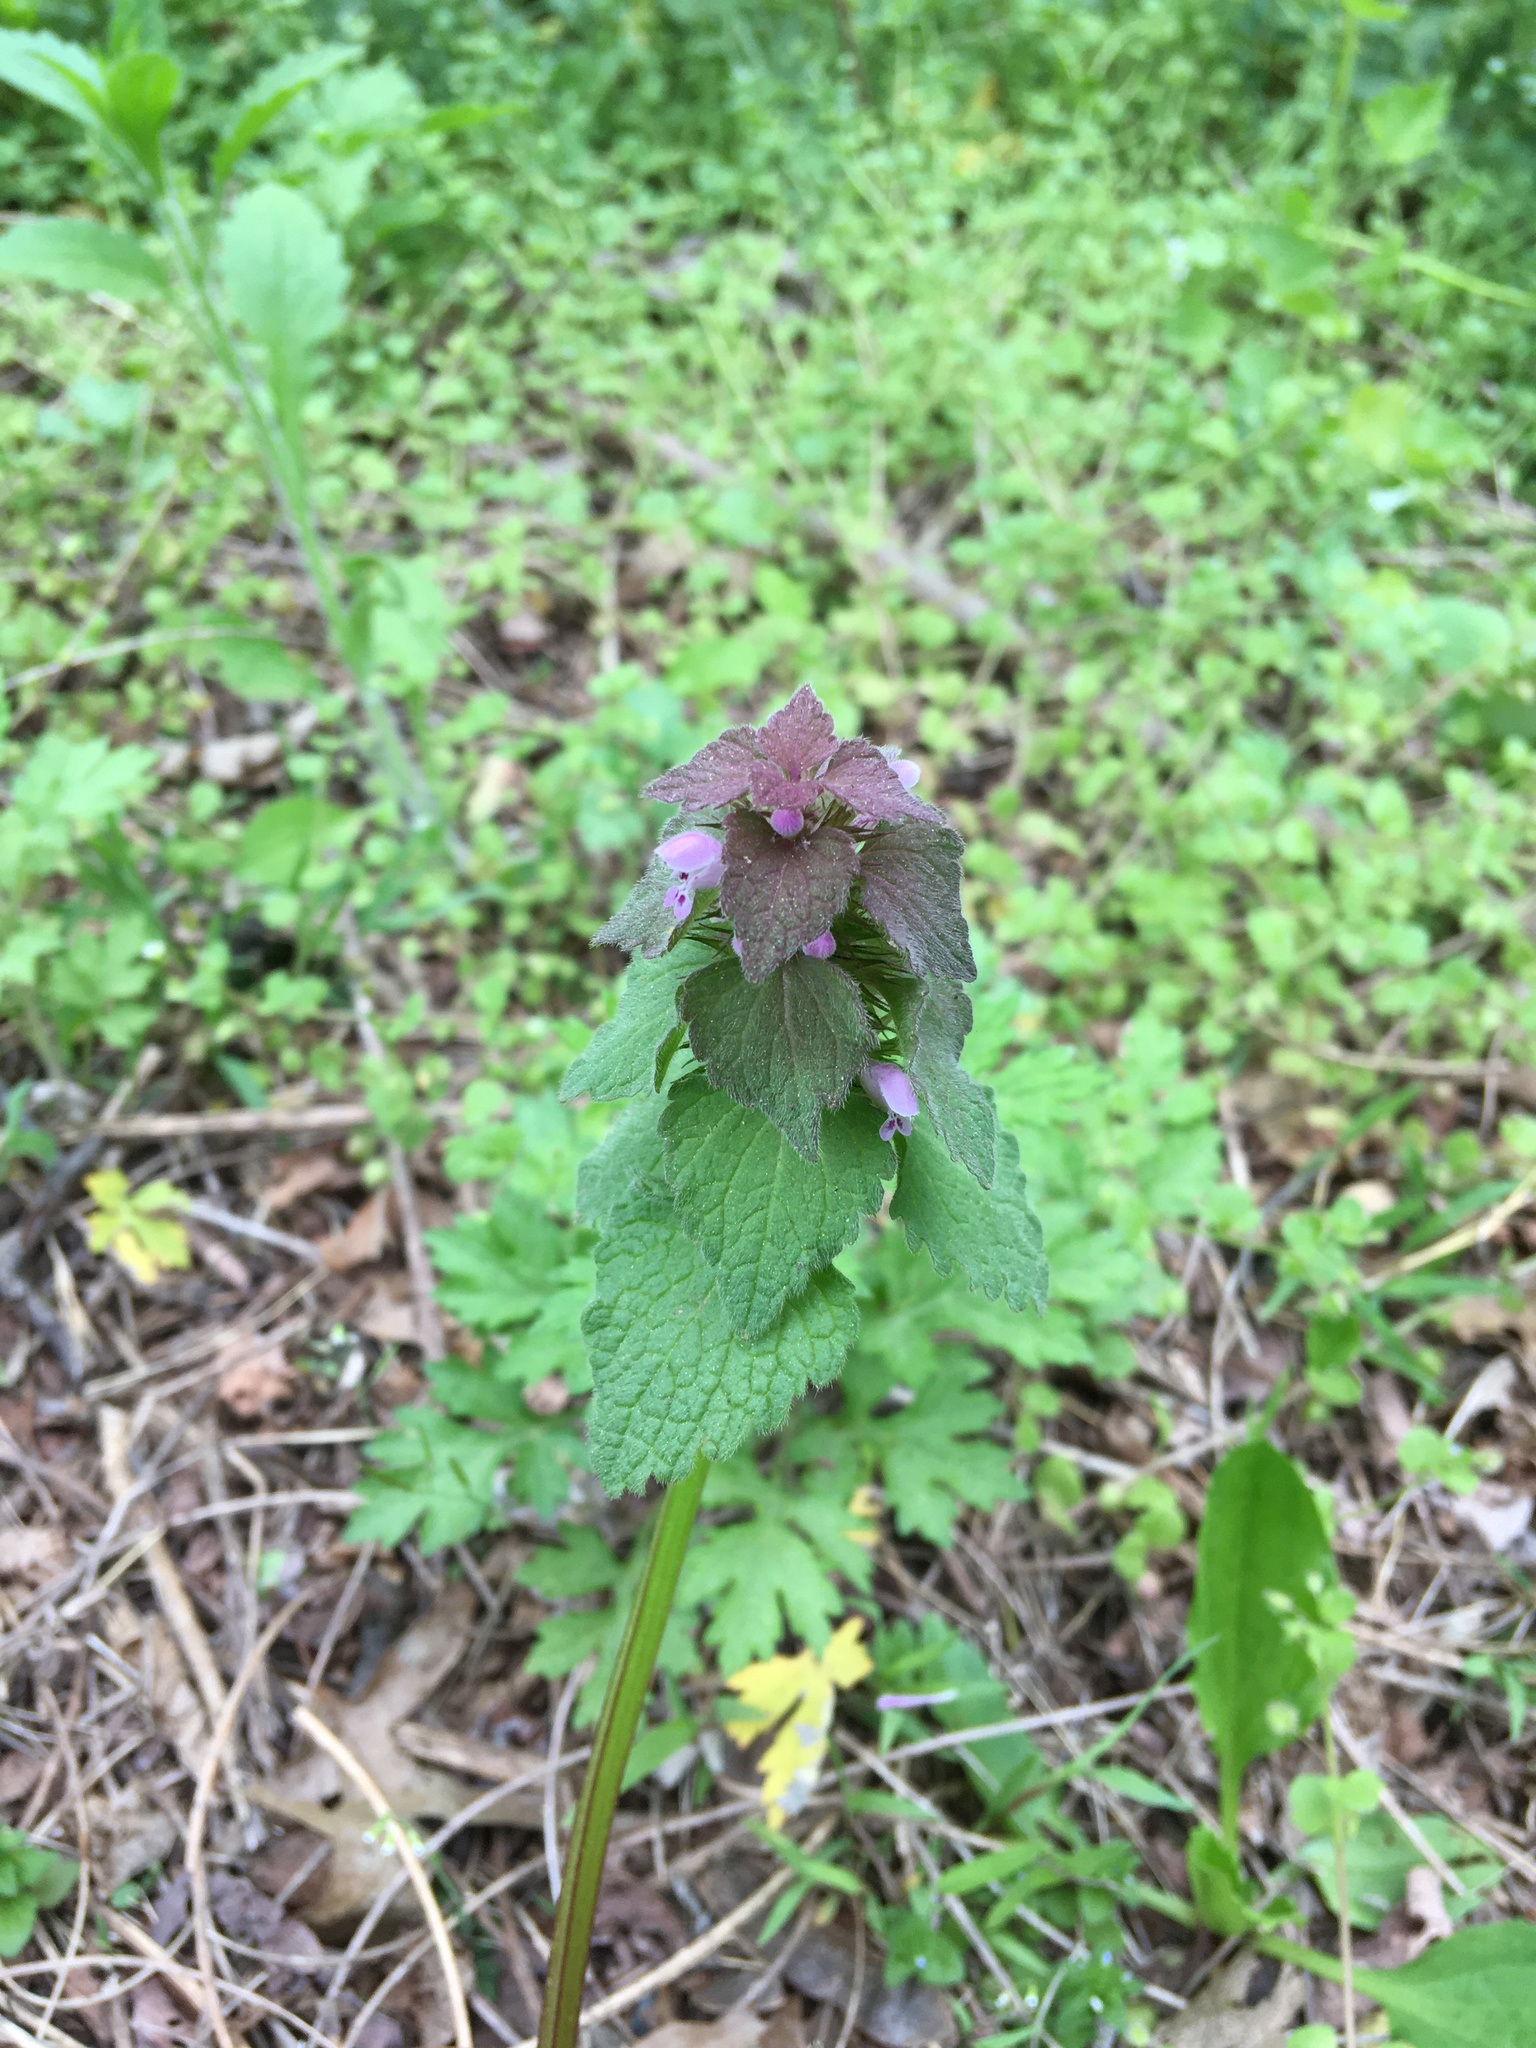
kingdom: Plantae
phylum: Tracheophyta
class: Magnoliopsida
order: Lamiales
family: Lamiaceae
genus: Lamium
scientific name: Lamium purpureum
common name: Red dead-nettle
